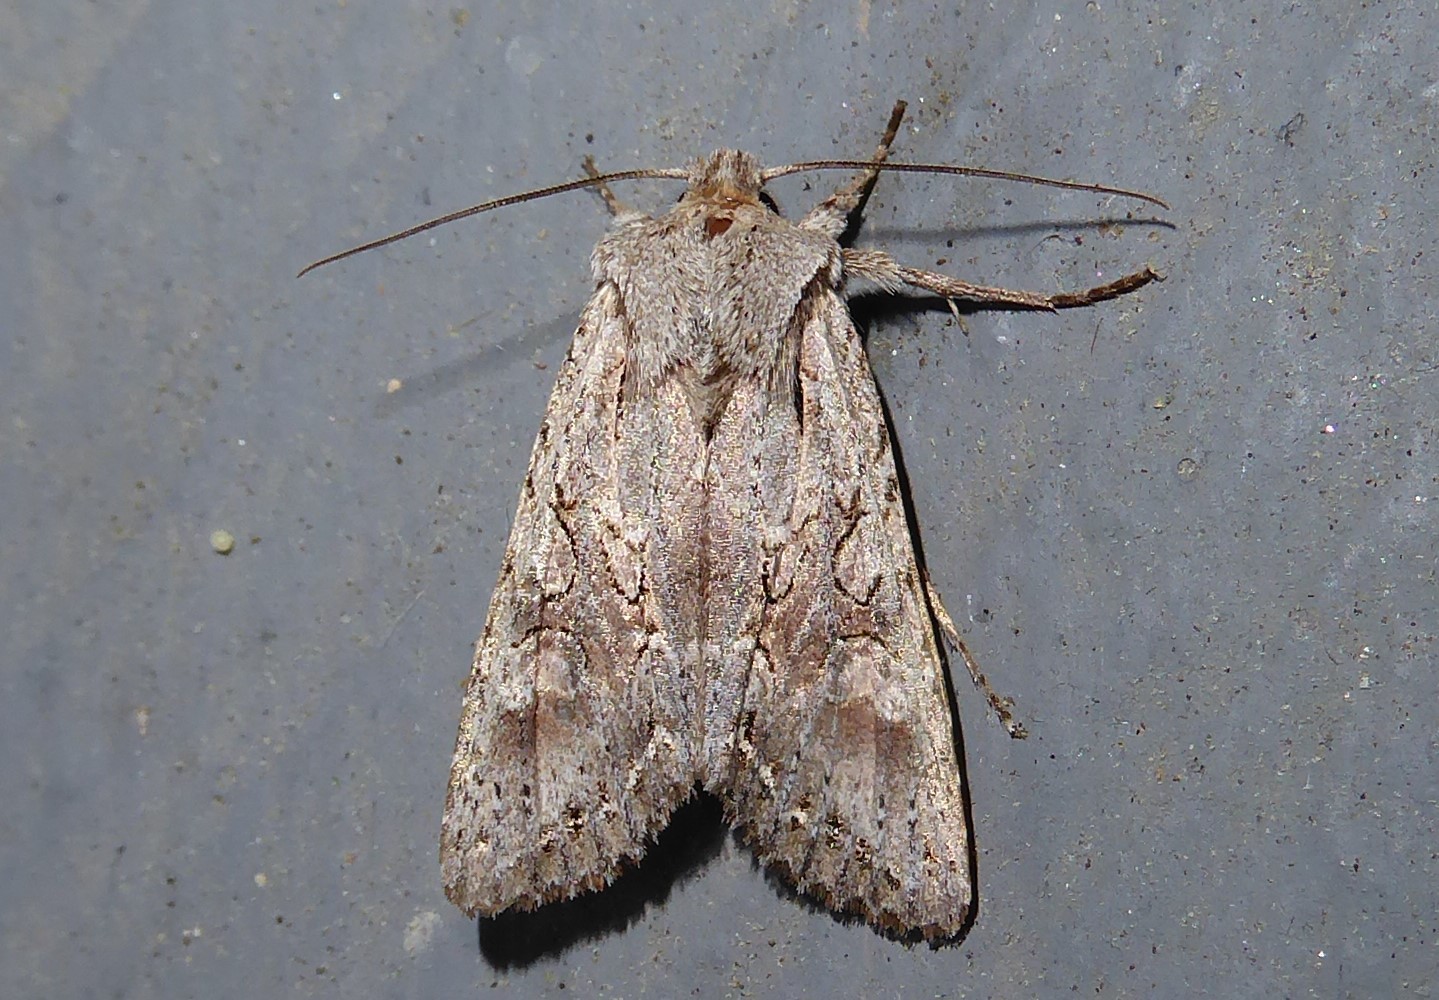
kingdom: Animalia
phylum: Arthropoda
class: Insecta
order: Lepidoptera
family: Noctuidae
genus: Ichneutica
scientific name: Ichneutica mutans
